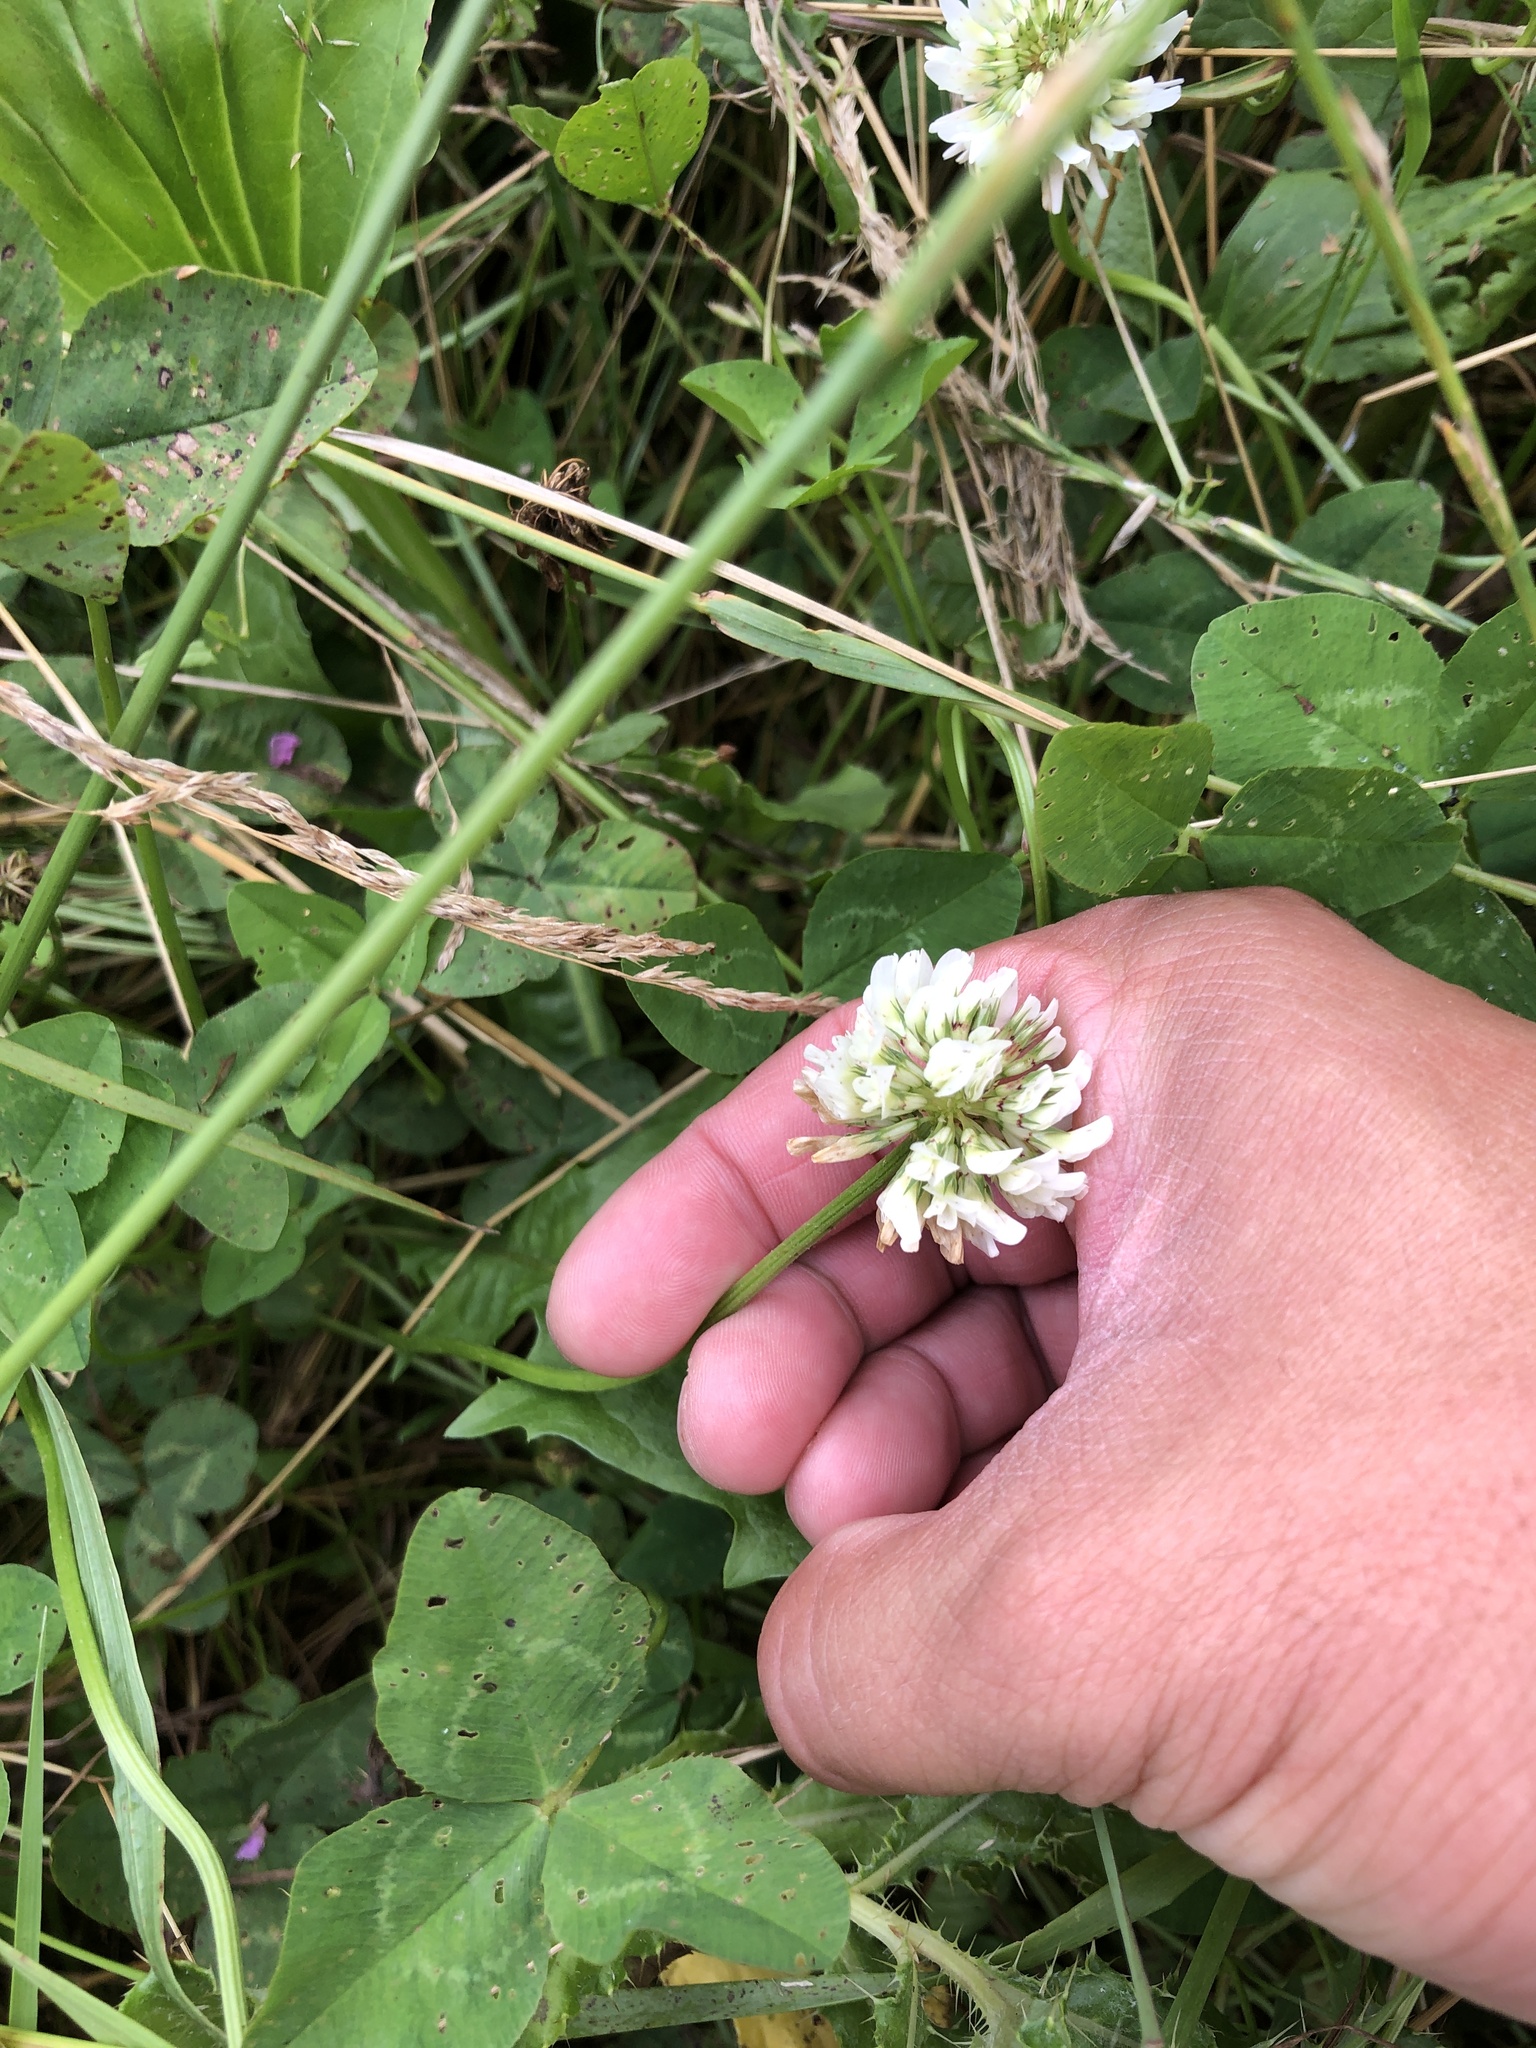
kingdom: Plantae
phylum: Tracheophyta
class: Magnoliopsida
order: Fabales
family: Fabaceae
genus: Trifolium
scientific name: Trifolium repens
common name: White clover
